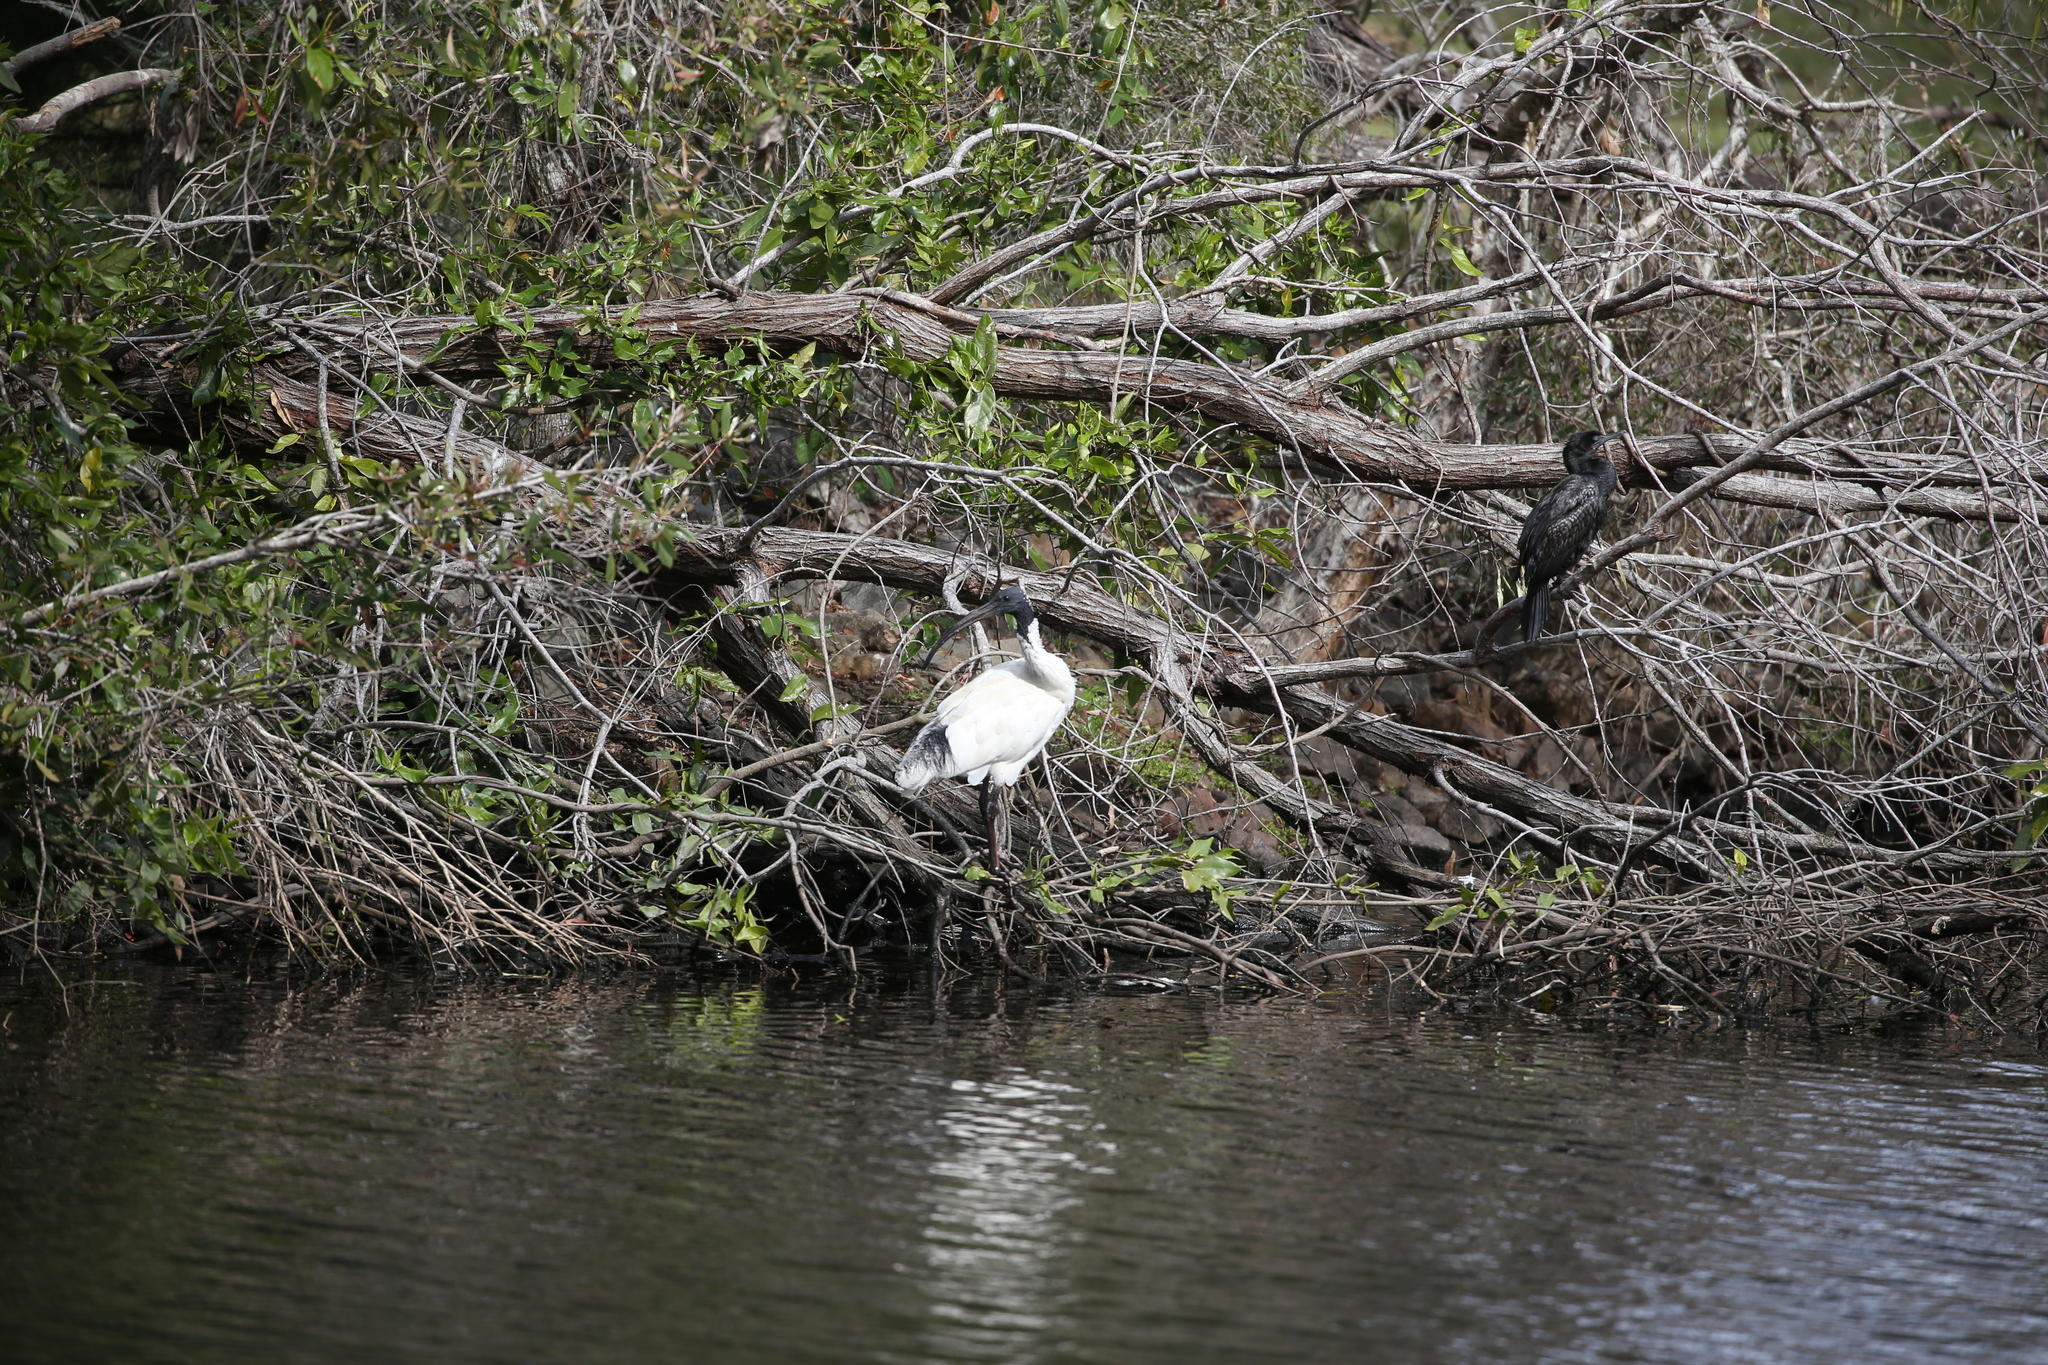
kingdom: Animalia
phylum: Chordata
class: Aves
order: Pelecaniformes
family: Threskiornithidae
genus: Threskiornis
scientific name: Threskiornis molucca
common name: Australian white ibis
